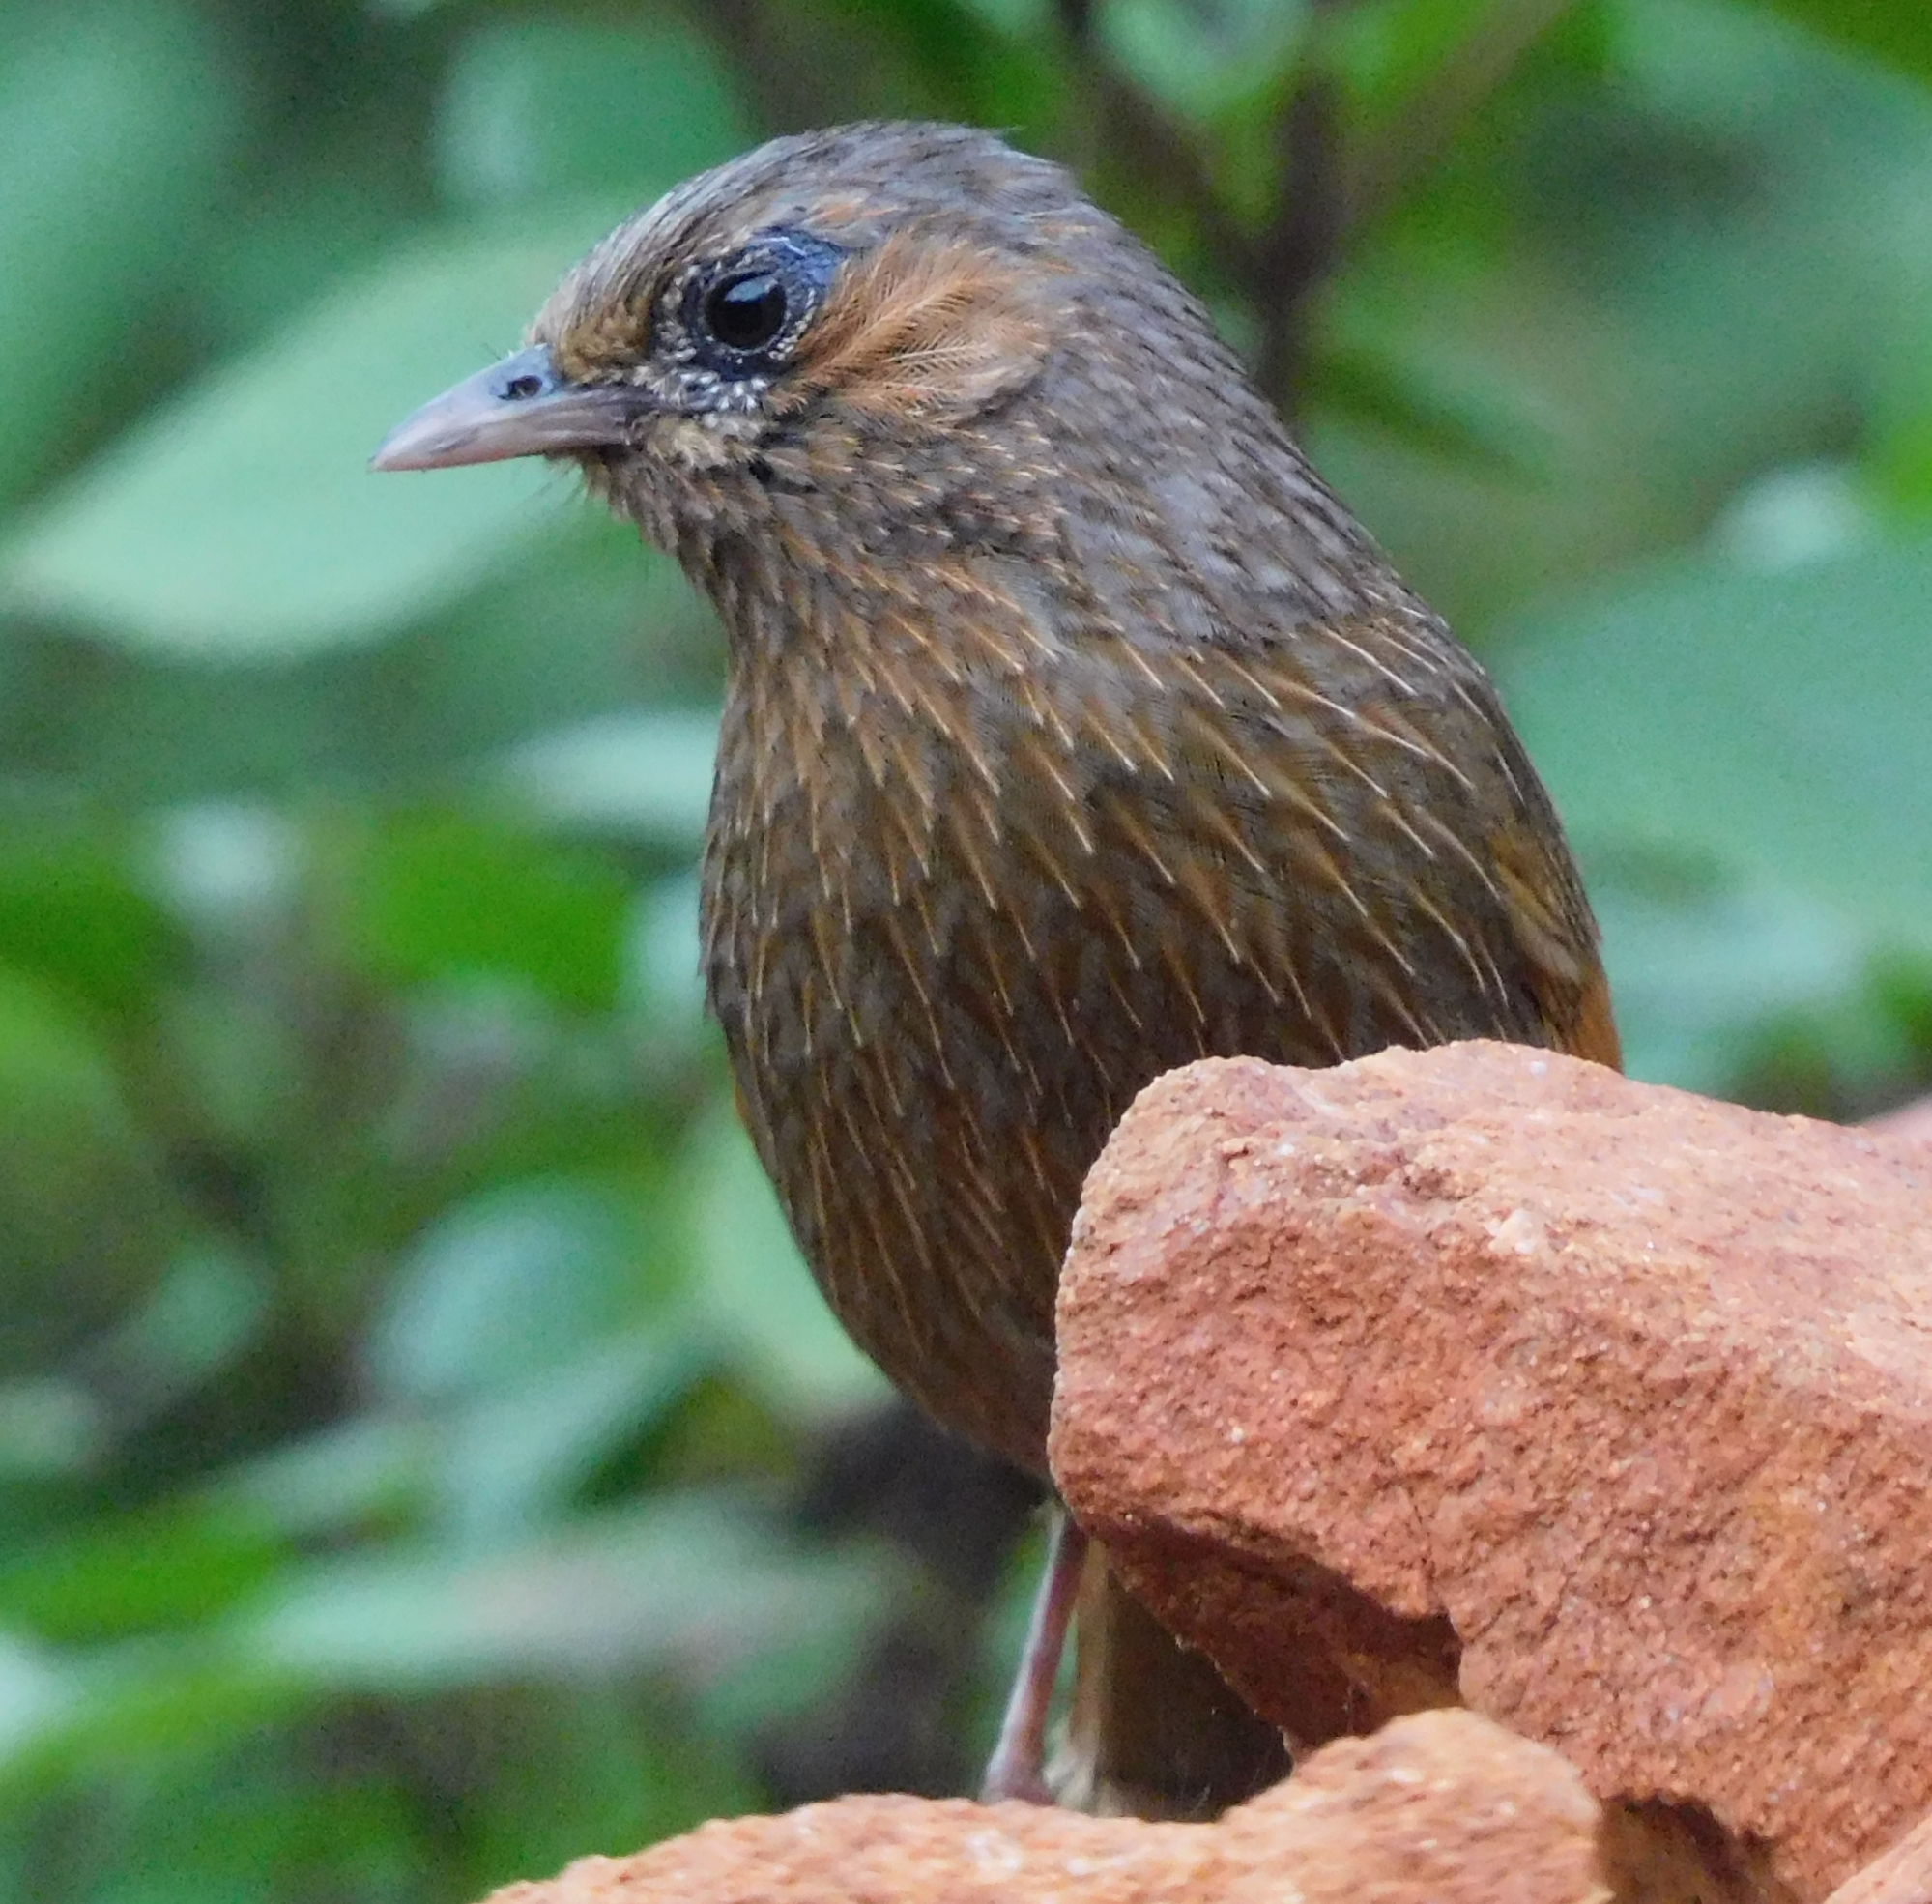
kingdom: Animalia
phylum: Chordata
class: Aves
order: Passeriformes
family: Leiothrichidae
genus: Trochalopteron
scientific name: Trochalopteron lineatum
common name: Streaked laughingthrush
